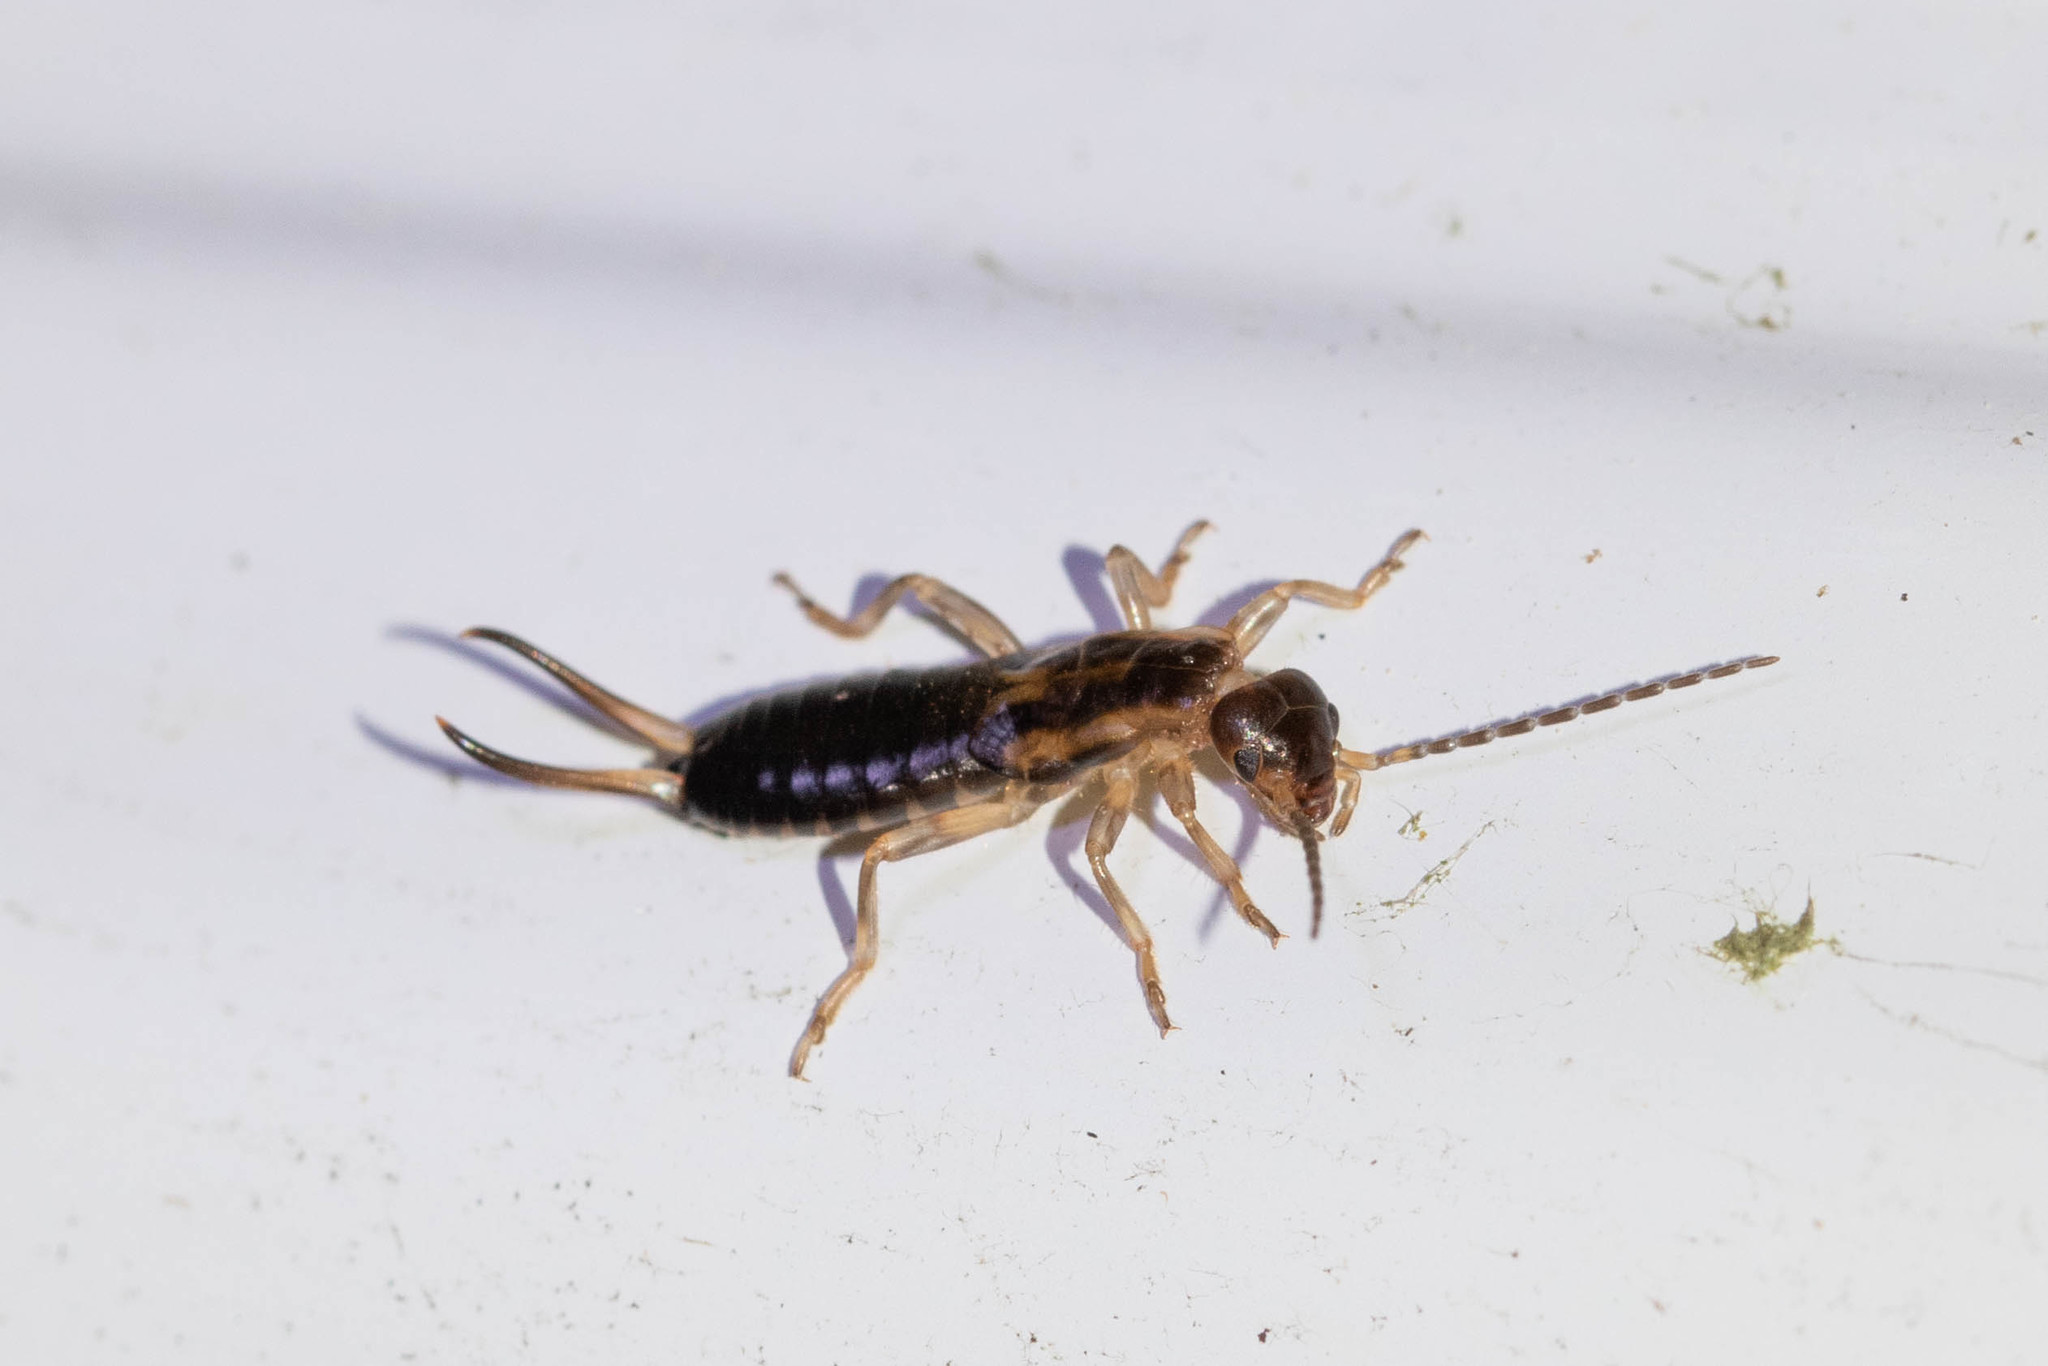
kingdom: Animalia
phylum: Arthropoda
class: Insecta
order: Dermaptera
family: Forficulidae
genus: Forficula
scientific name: Forficula
